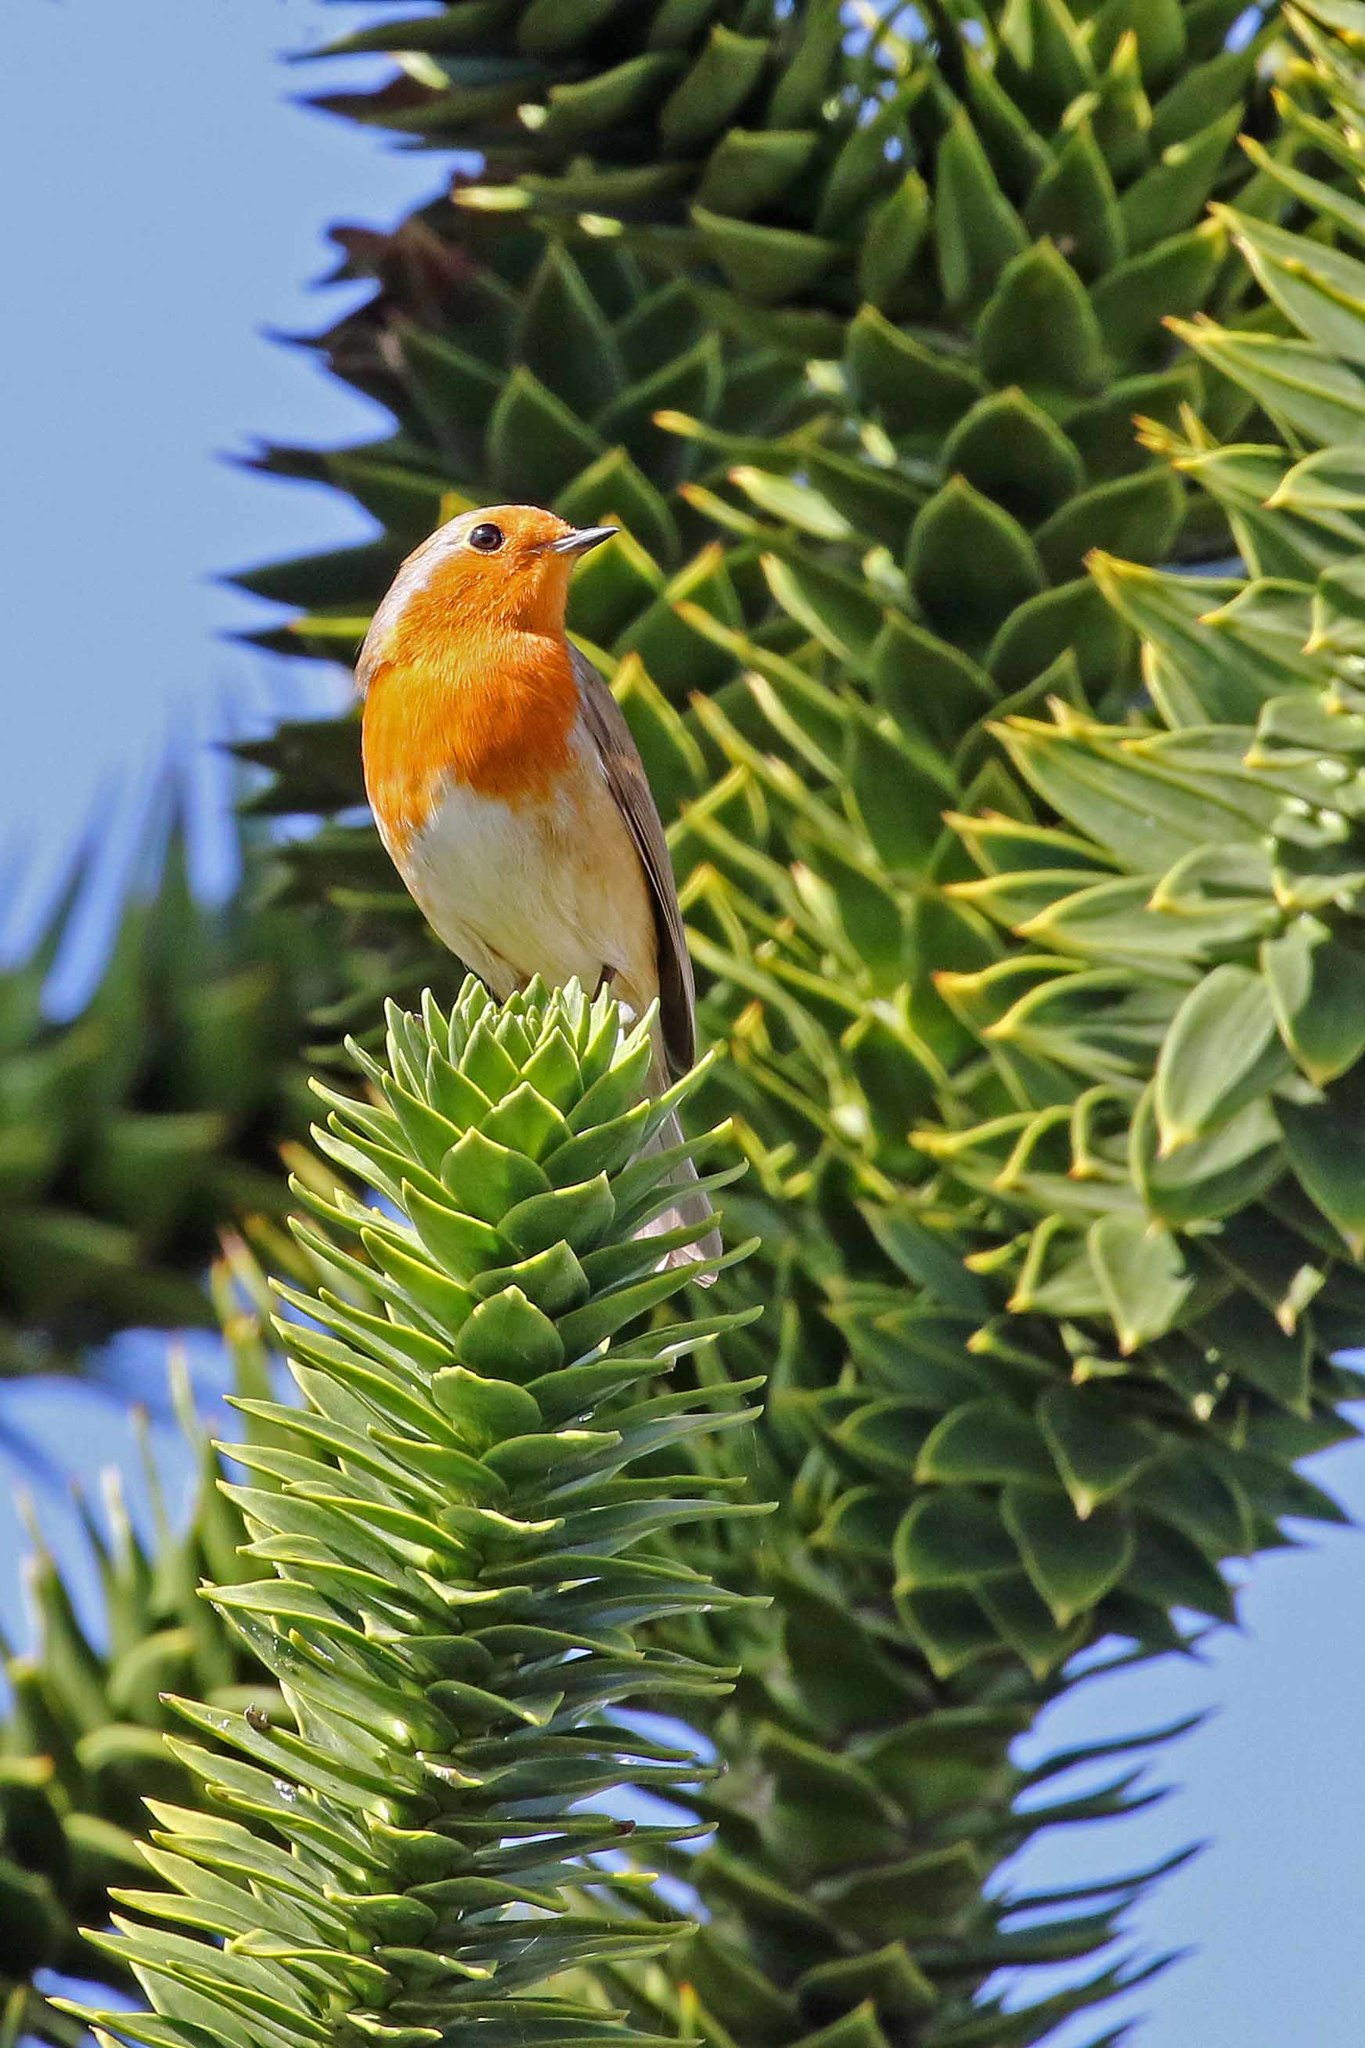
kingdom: Animalia
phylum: Chordata
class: Aves
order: Passeriformes
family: Muscicapidae
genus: Erithacus
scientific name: Erithacus rubecula
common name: European robin
